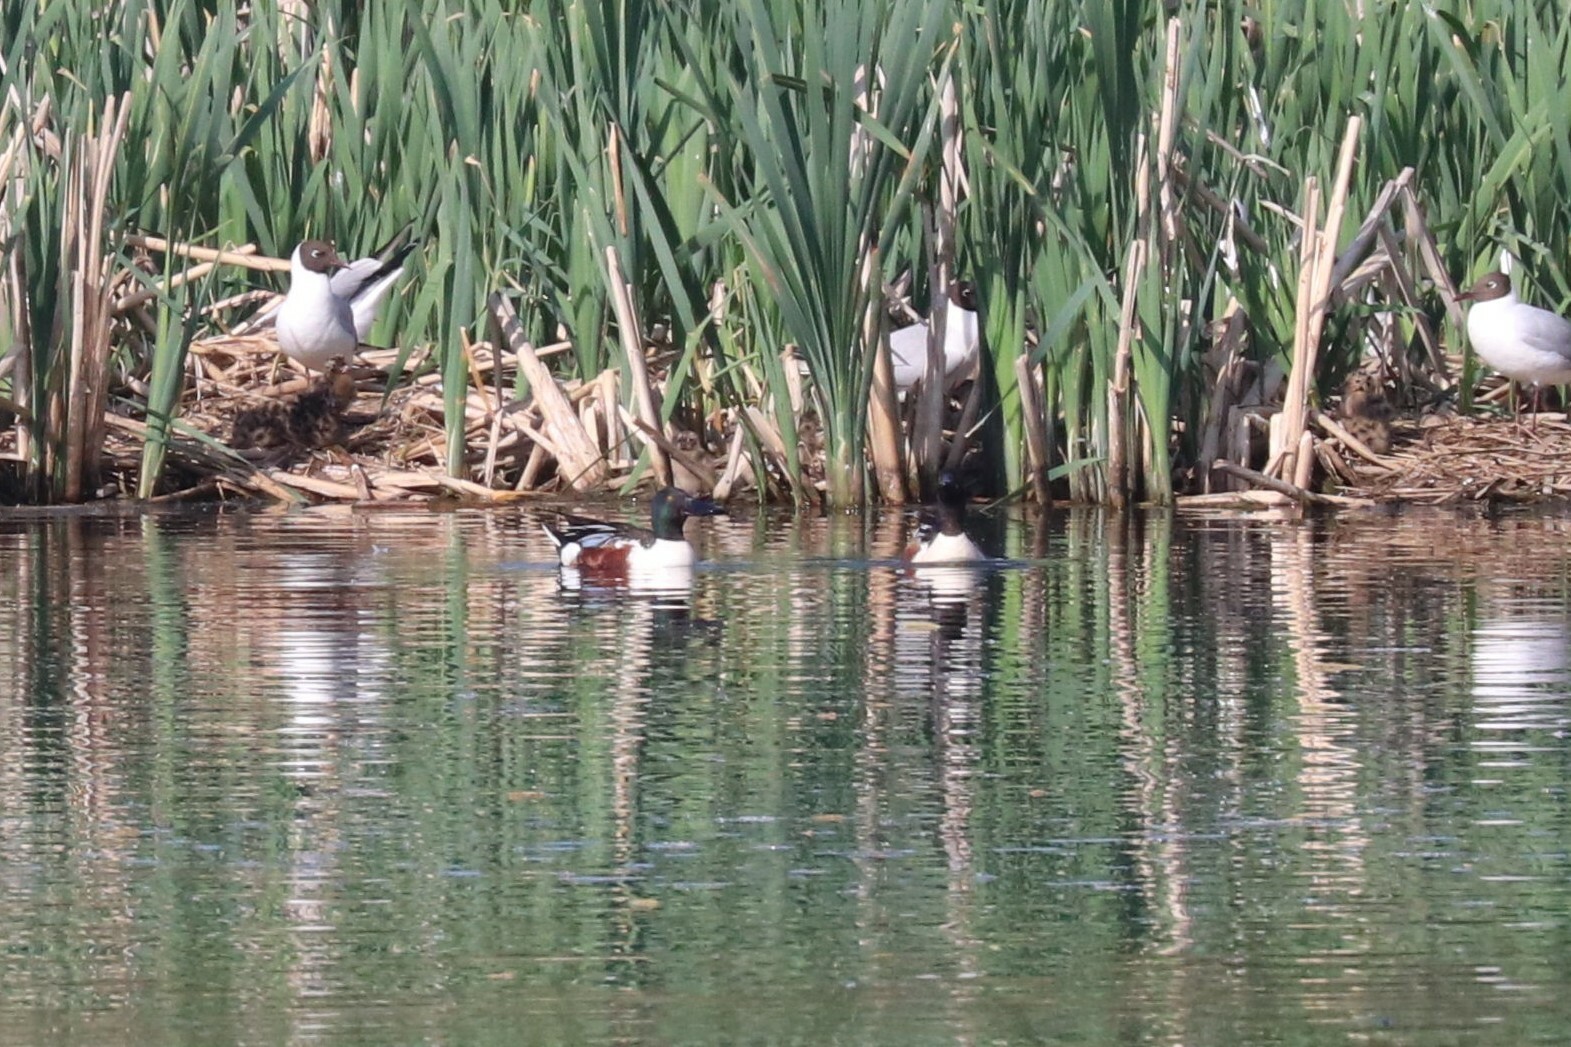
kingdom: Animalia
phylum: Chordata
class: Aves
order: Anseriformes
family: Anatidae
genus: Spatula
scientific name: Spatula clypeata
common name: Northern shoveler
